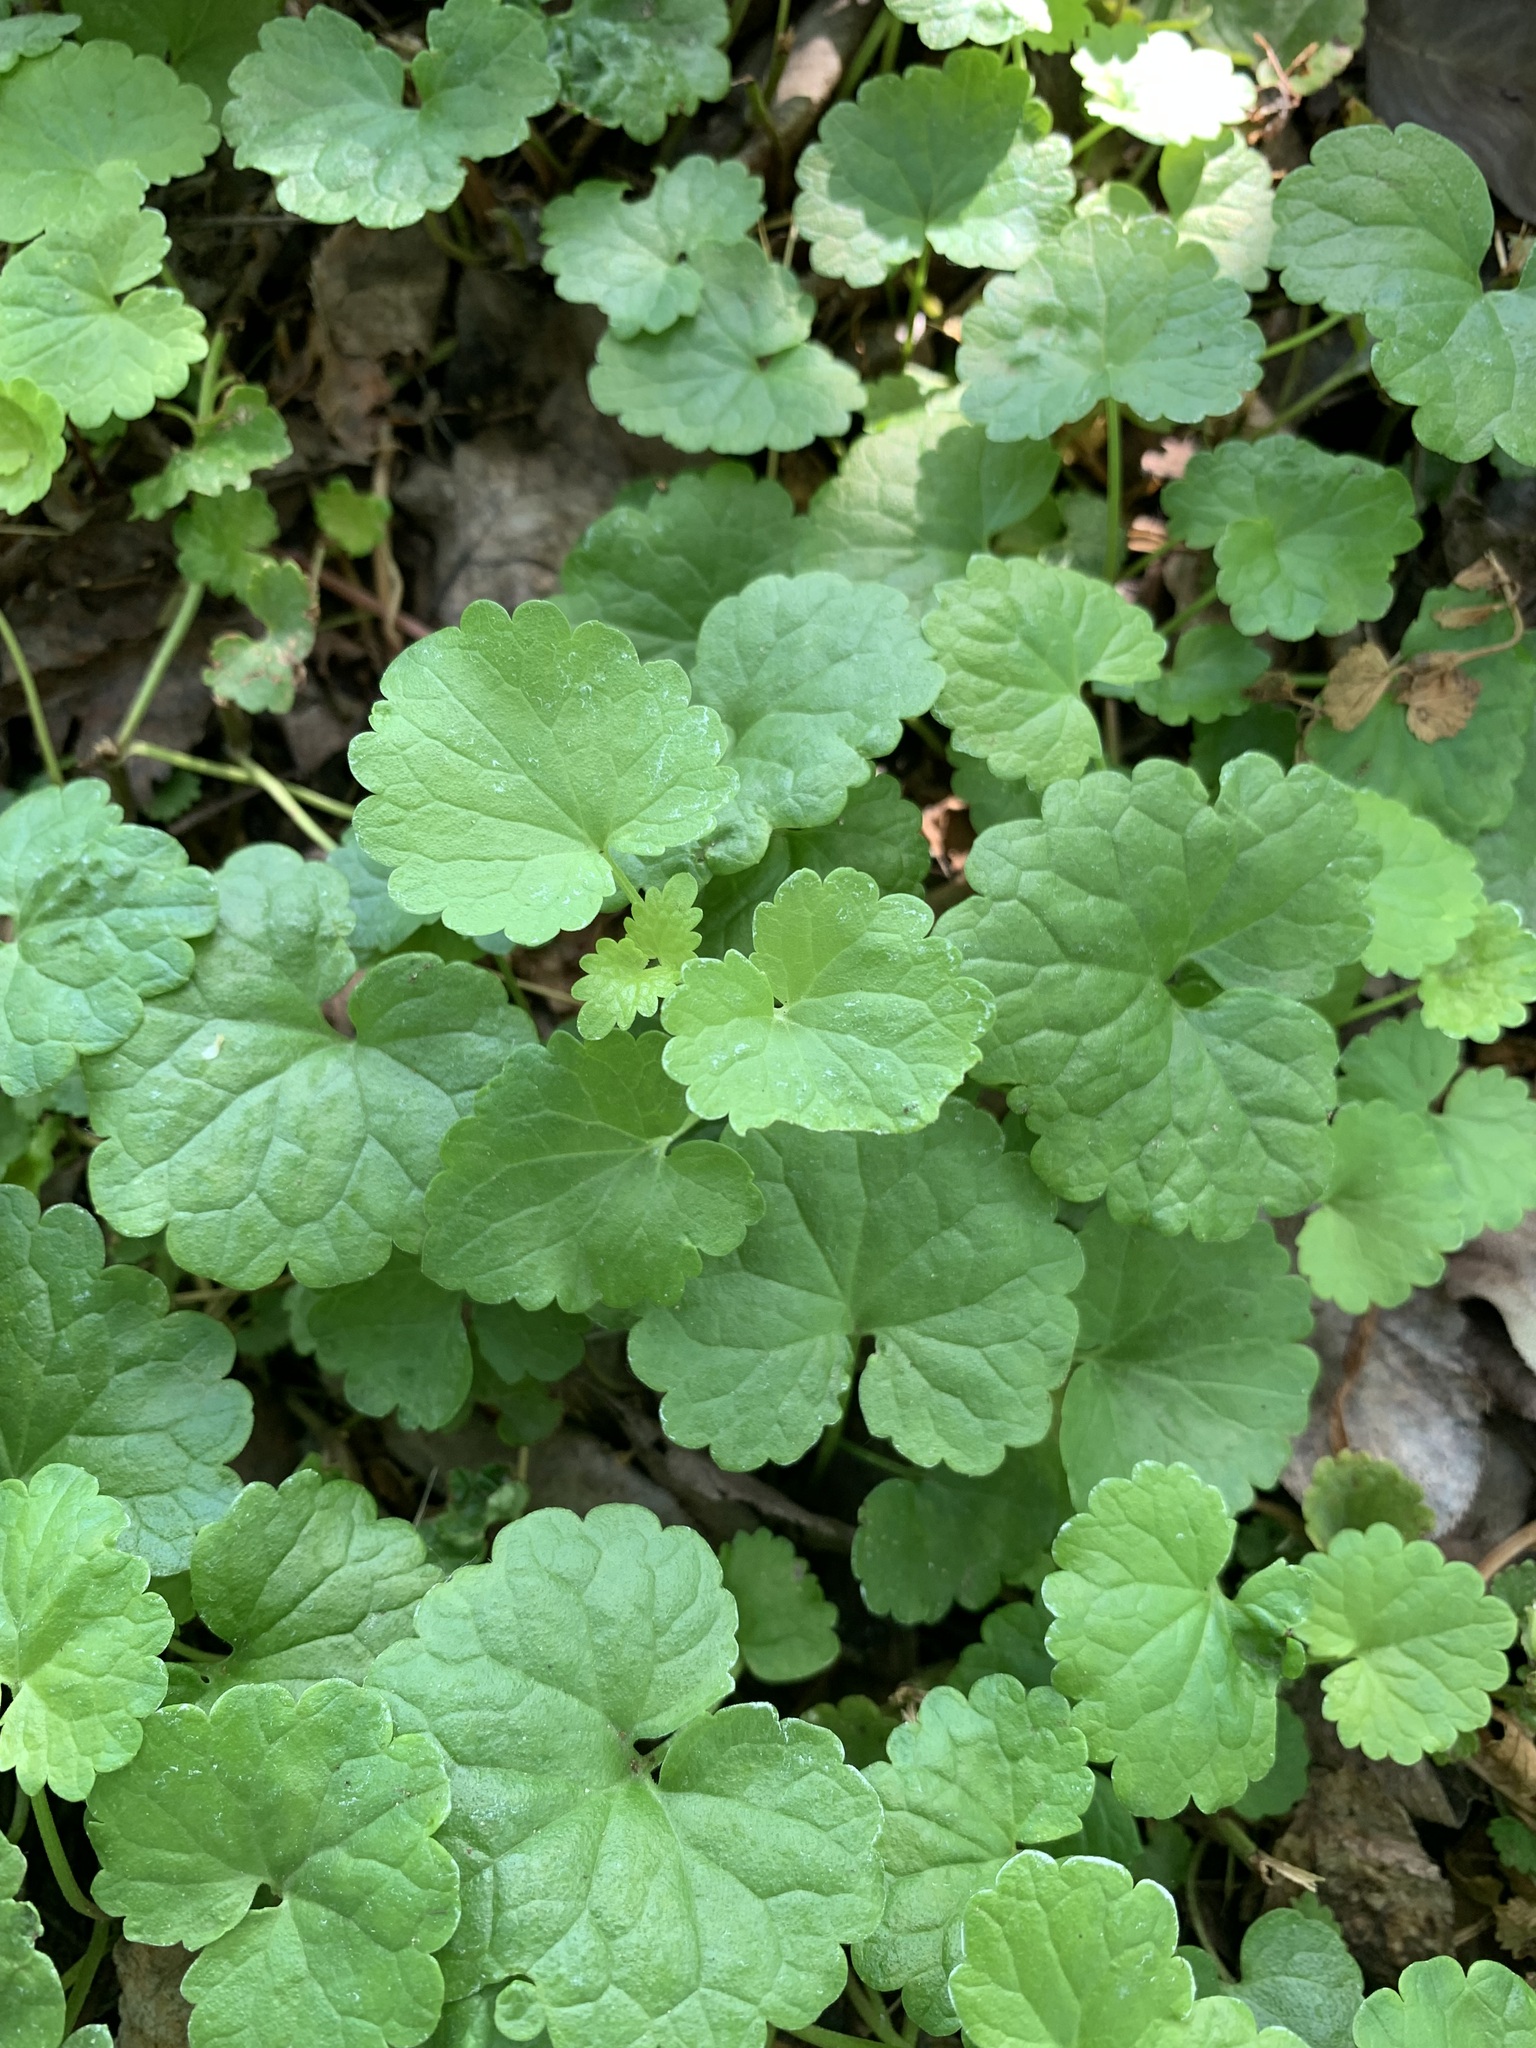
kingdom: Plantae
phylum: Tracheophyta
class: Magnoliopsida
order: Lamiales
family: Lamiaceae
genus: Glechoma
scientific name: Glechoma hederacea
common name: Ground ivy
